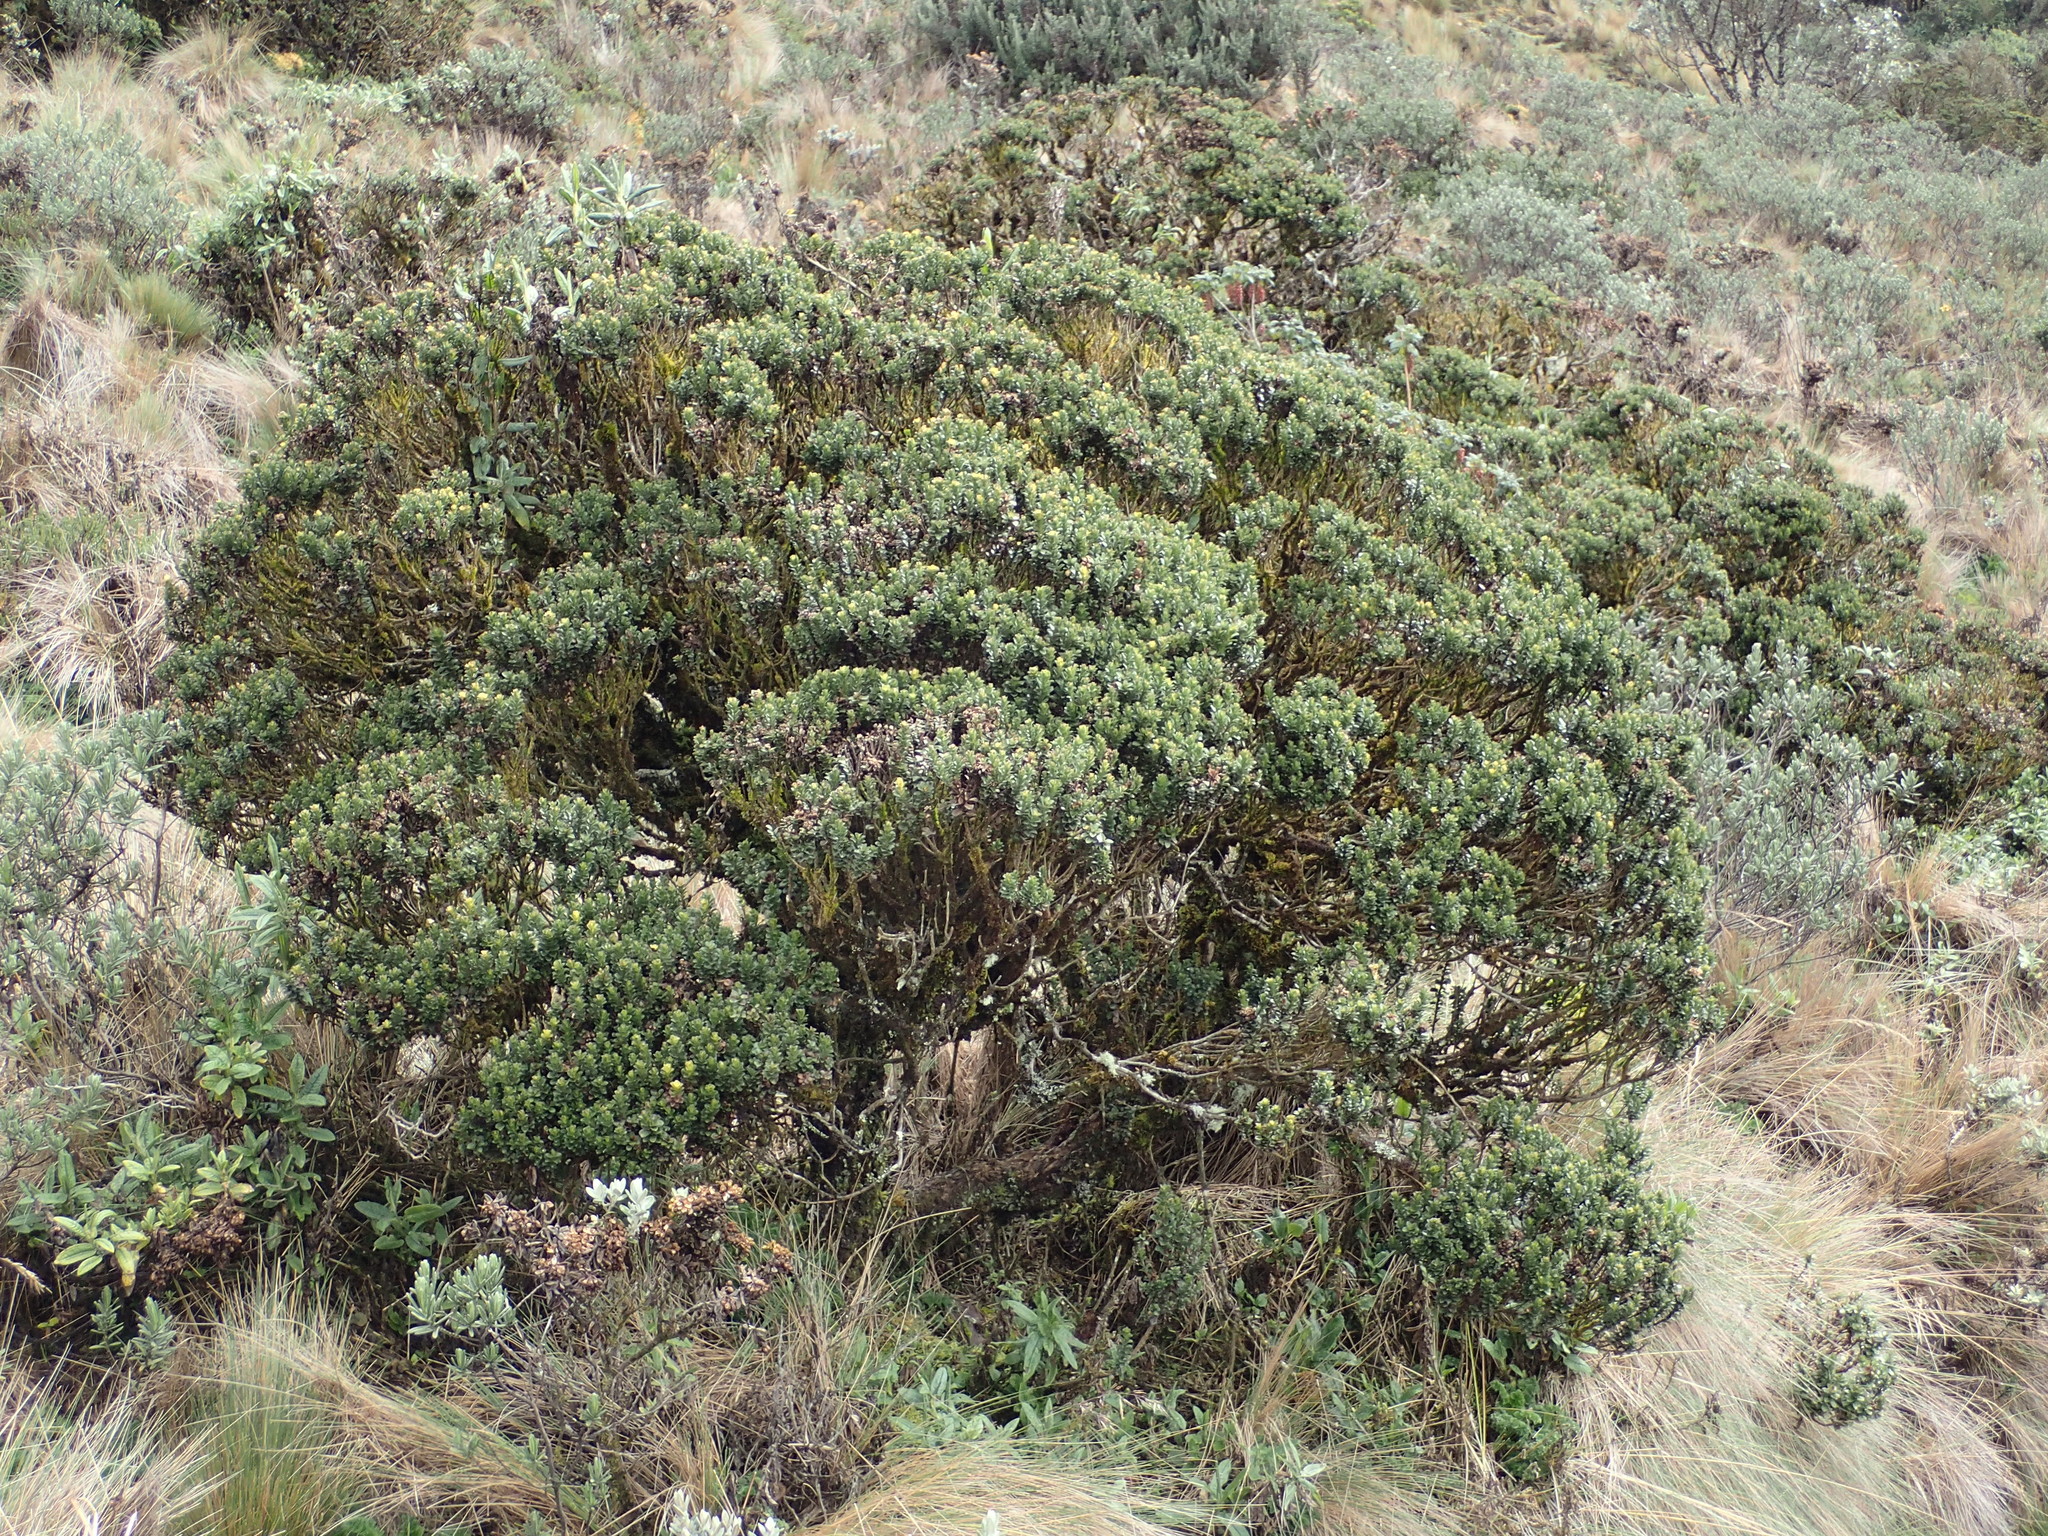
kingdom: Plantae
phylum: Tracheophyta
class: Magnoliopsida
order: Asterales
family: Asteraceae
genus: Chuquiraga
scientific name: Chuquiraga jussieui
